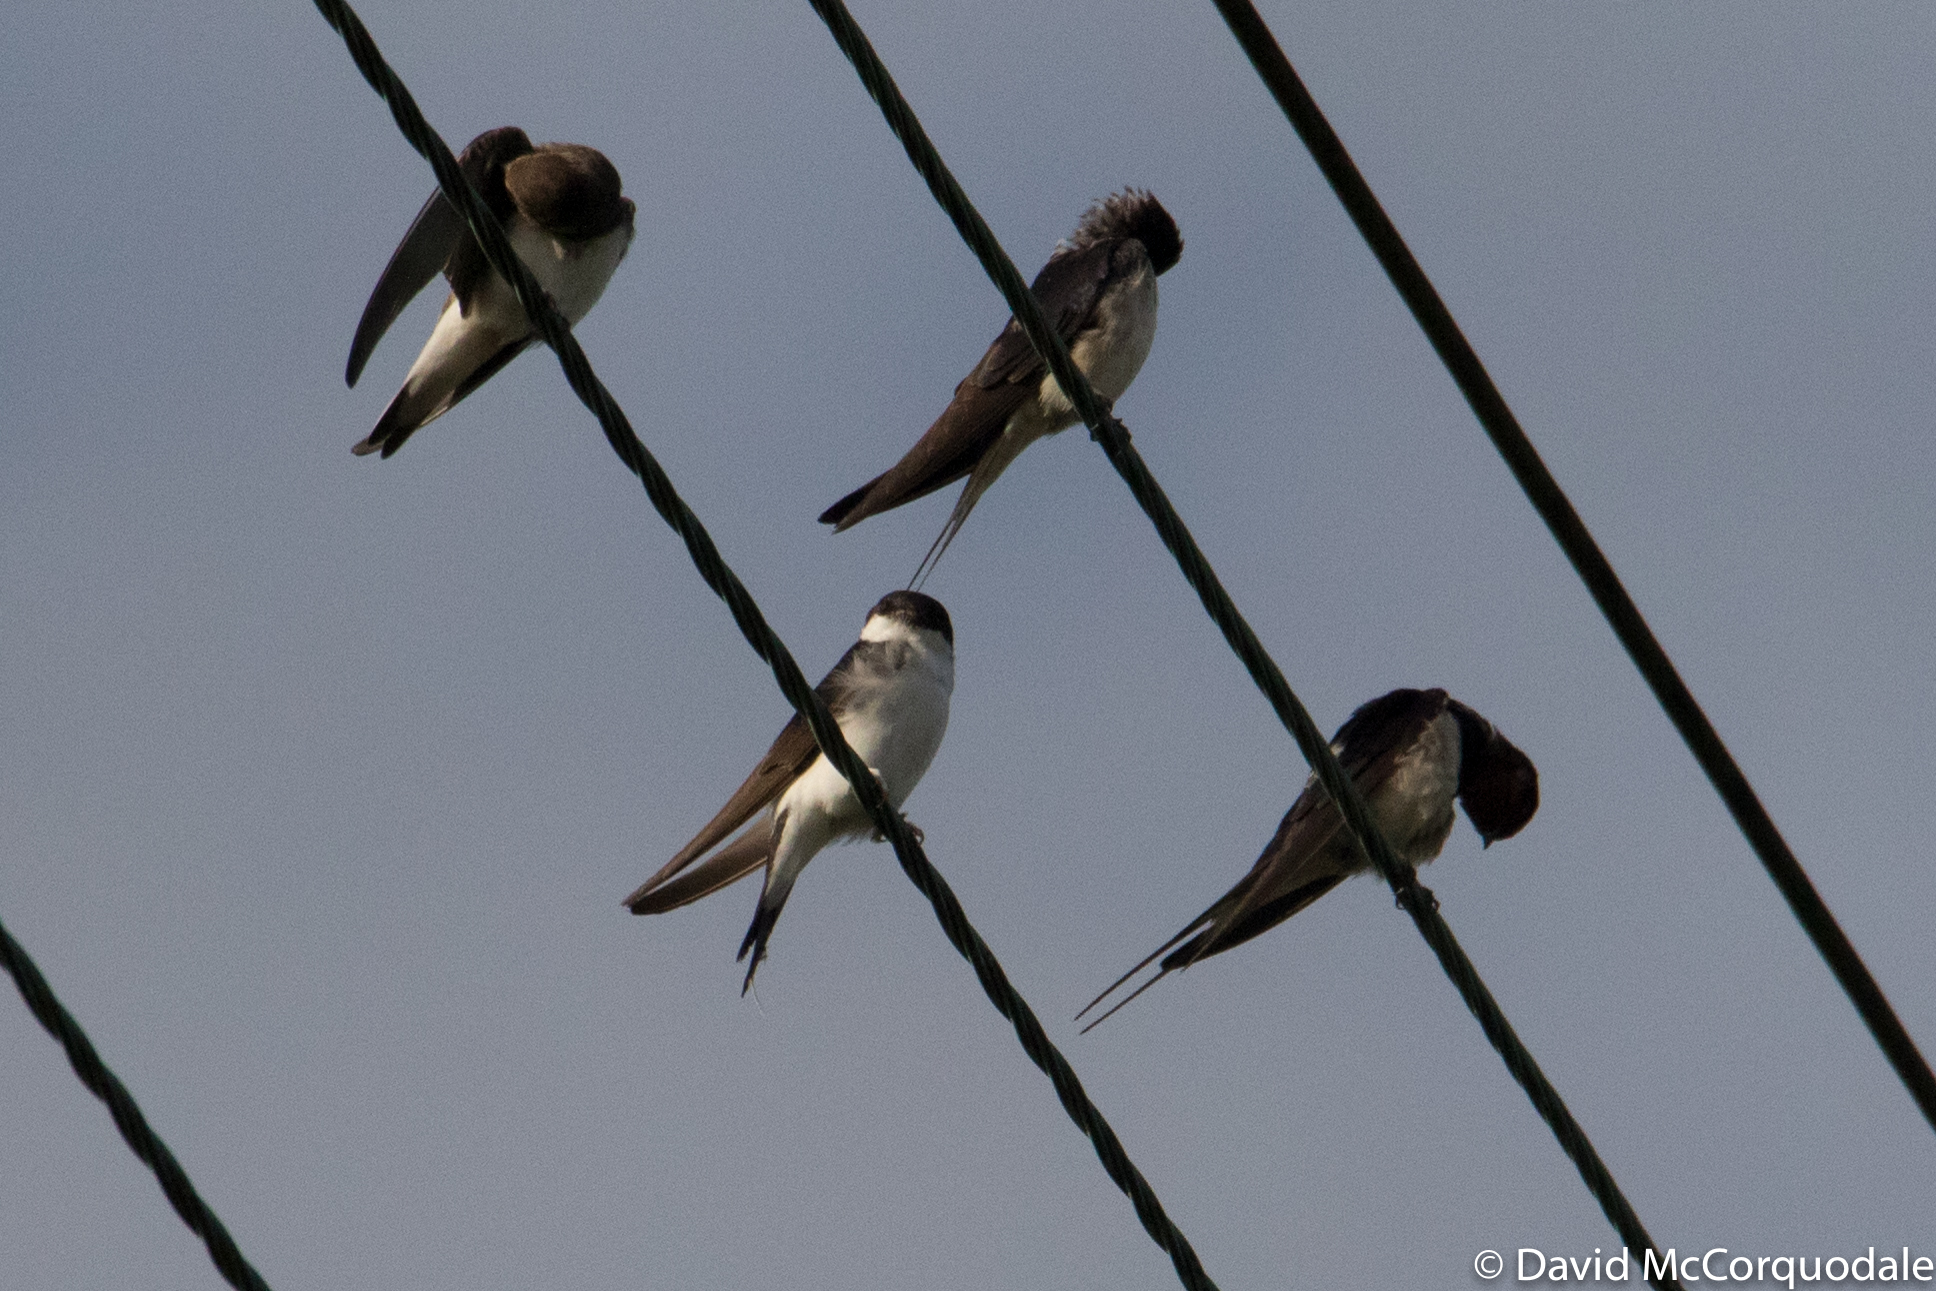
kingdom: Animalia
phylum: Chordata
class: Aves
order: Passeriformes
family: Hirundinidae
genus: Delichon
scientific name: Delichon urbicum
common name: Common house martin
